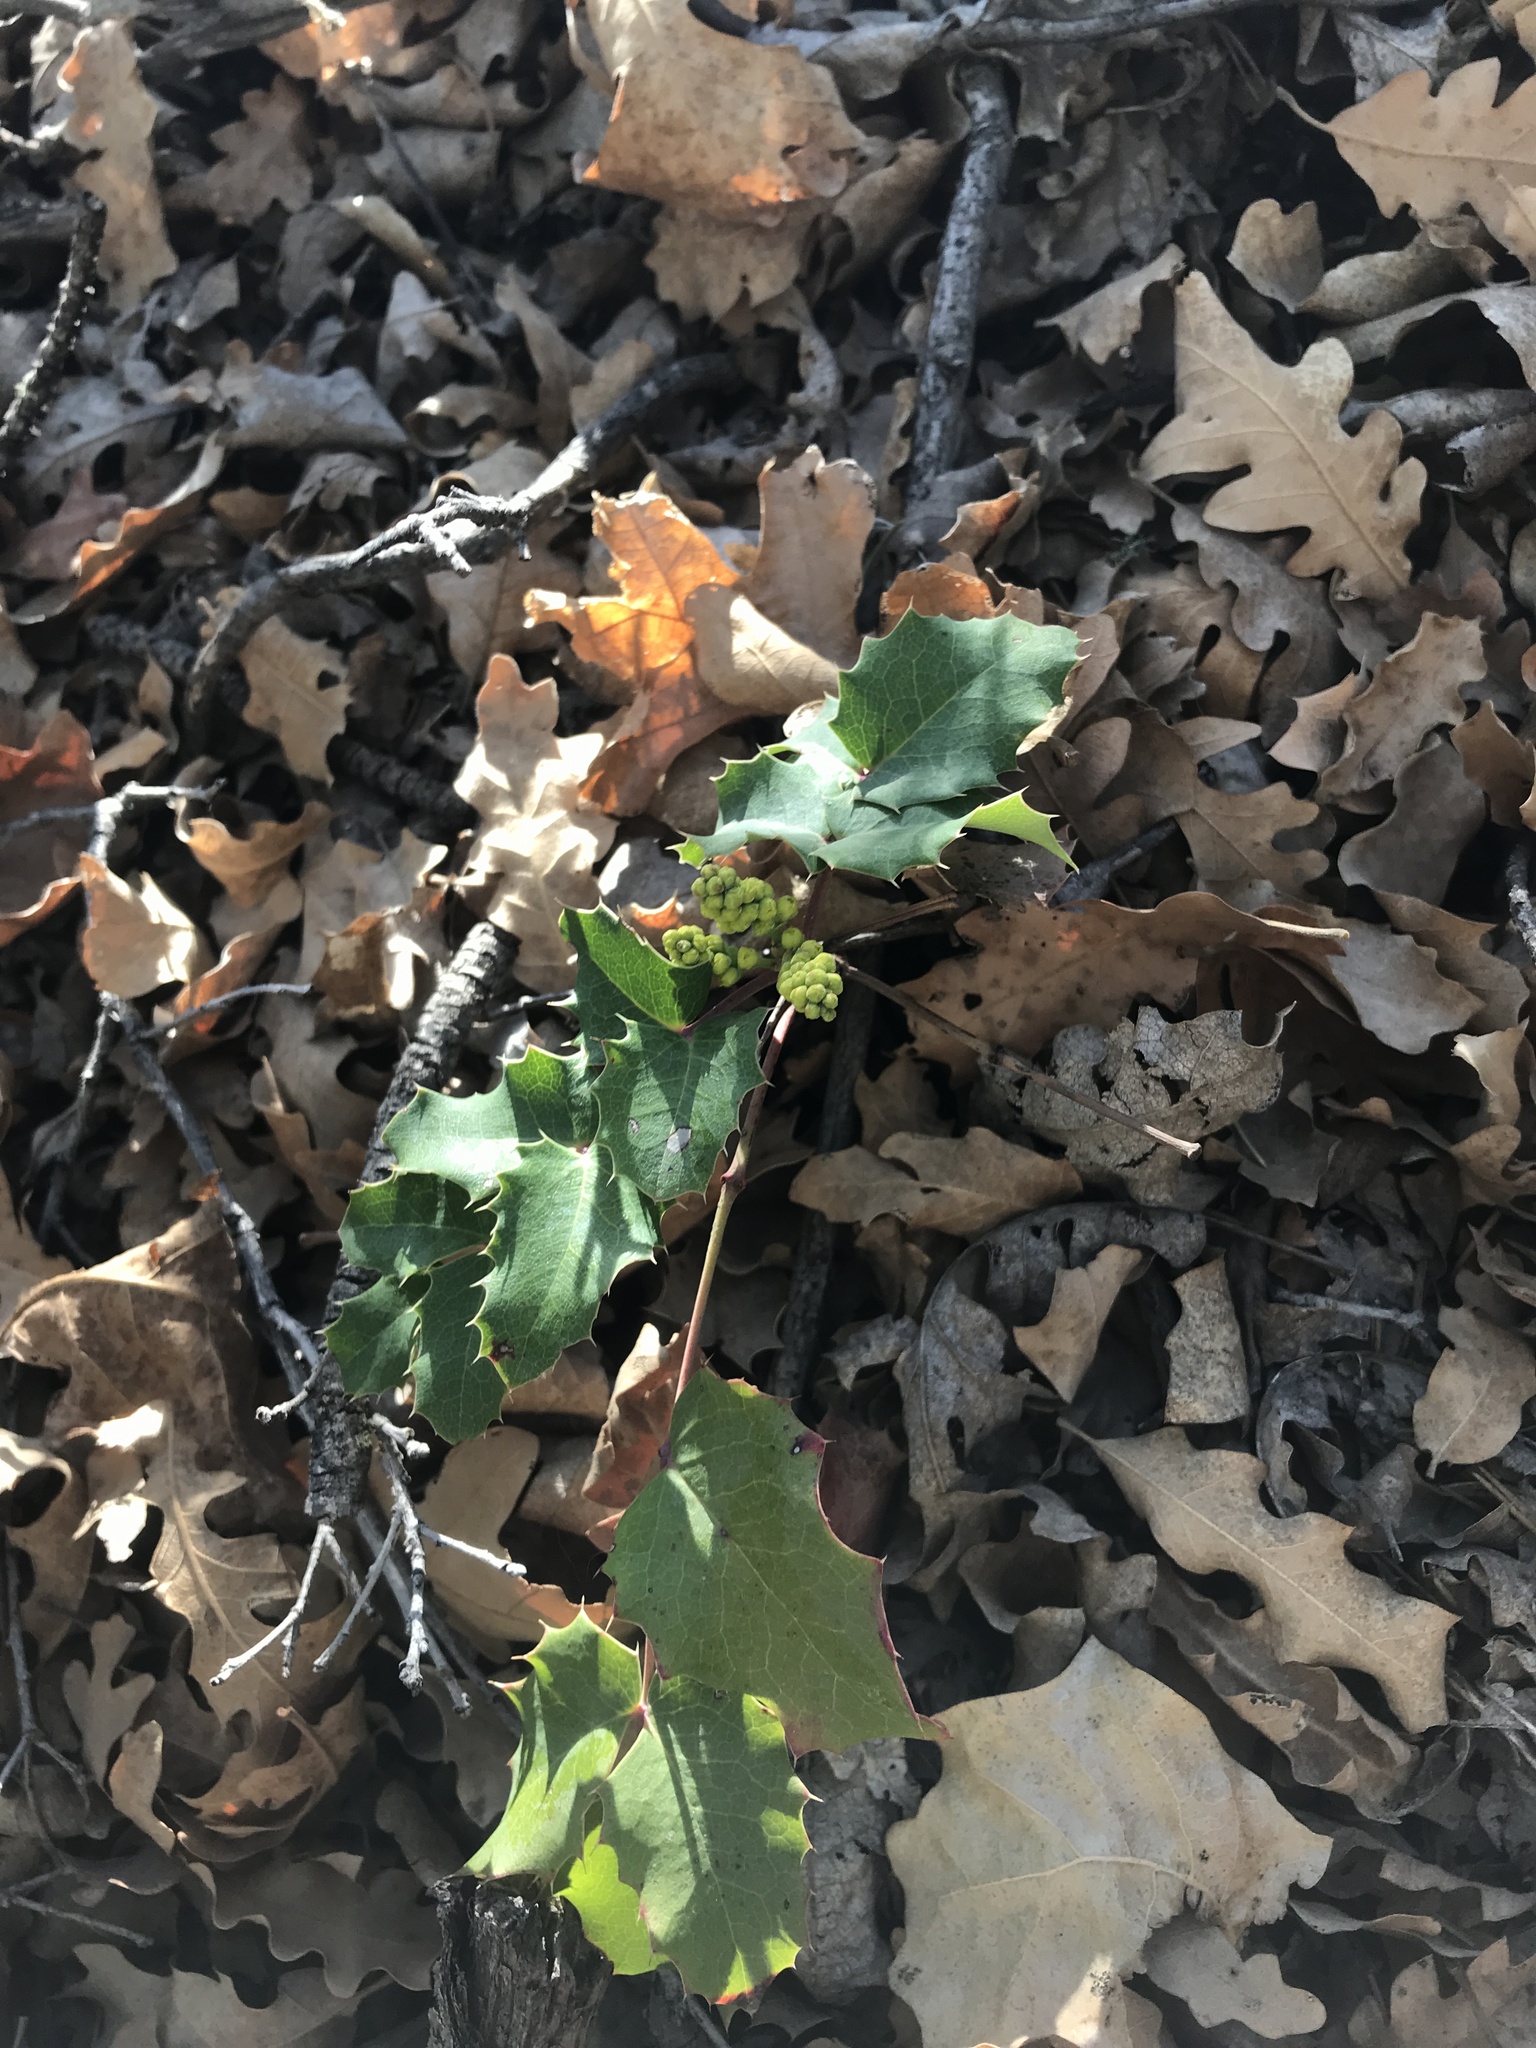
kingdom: Plantae
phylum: Tracheophyta
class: Magnoliopsida
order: Ranunculales
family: Berberidaceae
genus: Mahonia
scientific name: Mahonia repens
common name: Creeping oregon-grape
